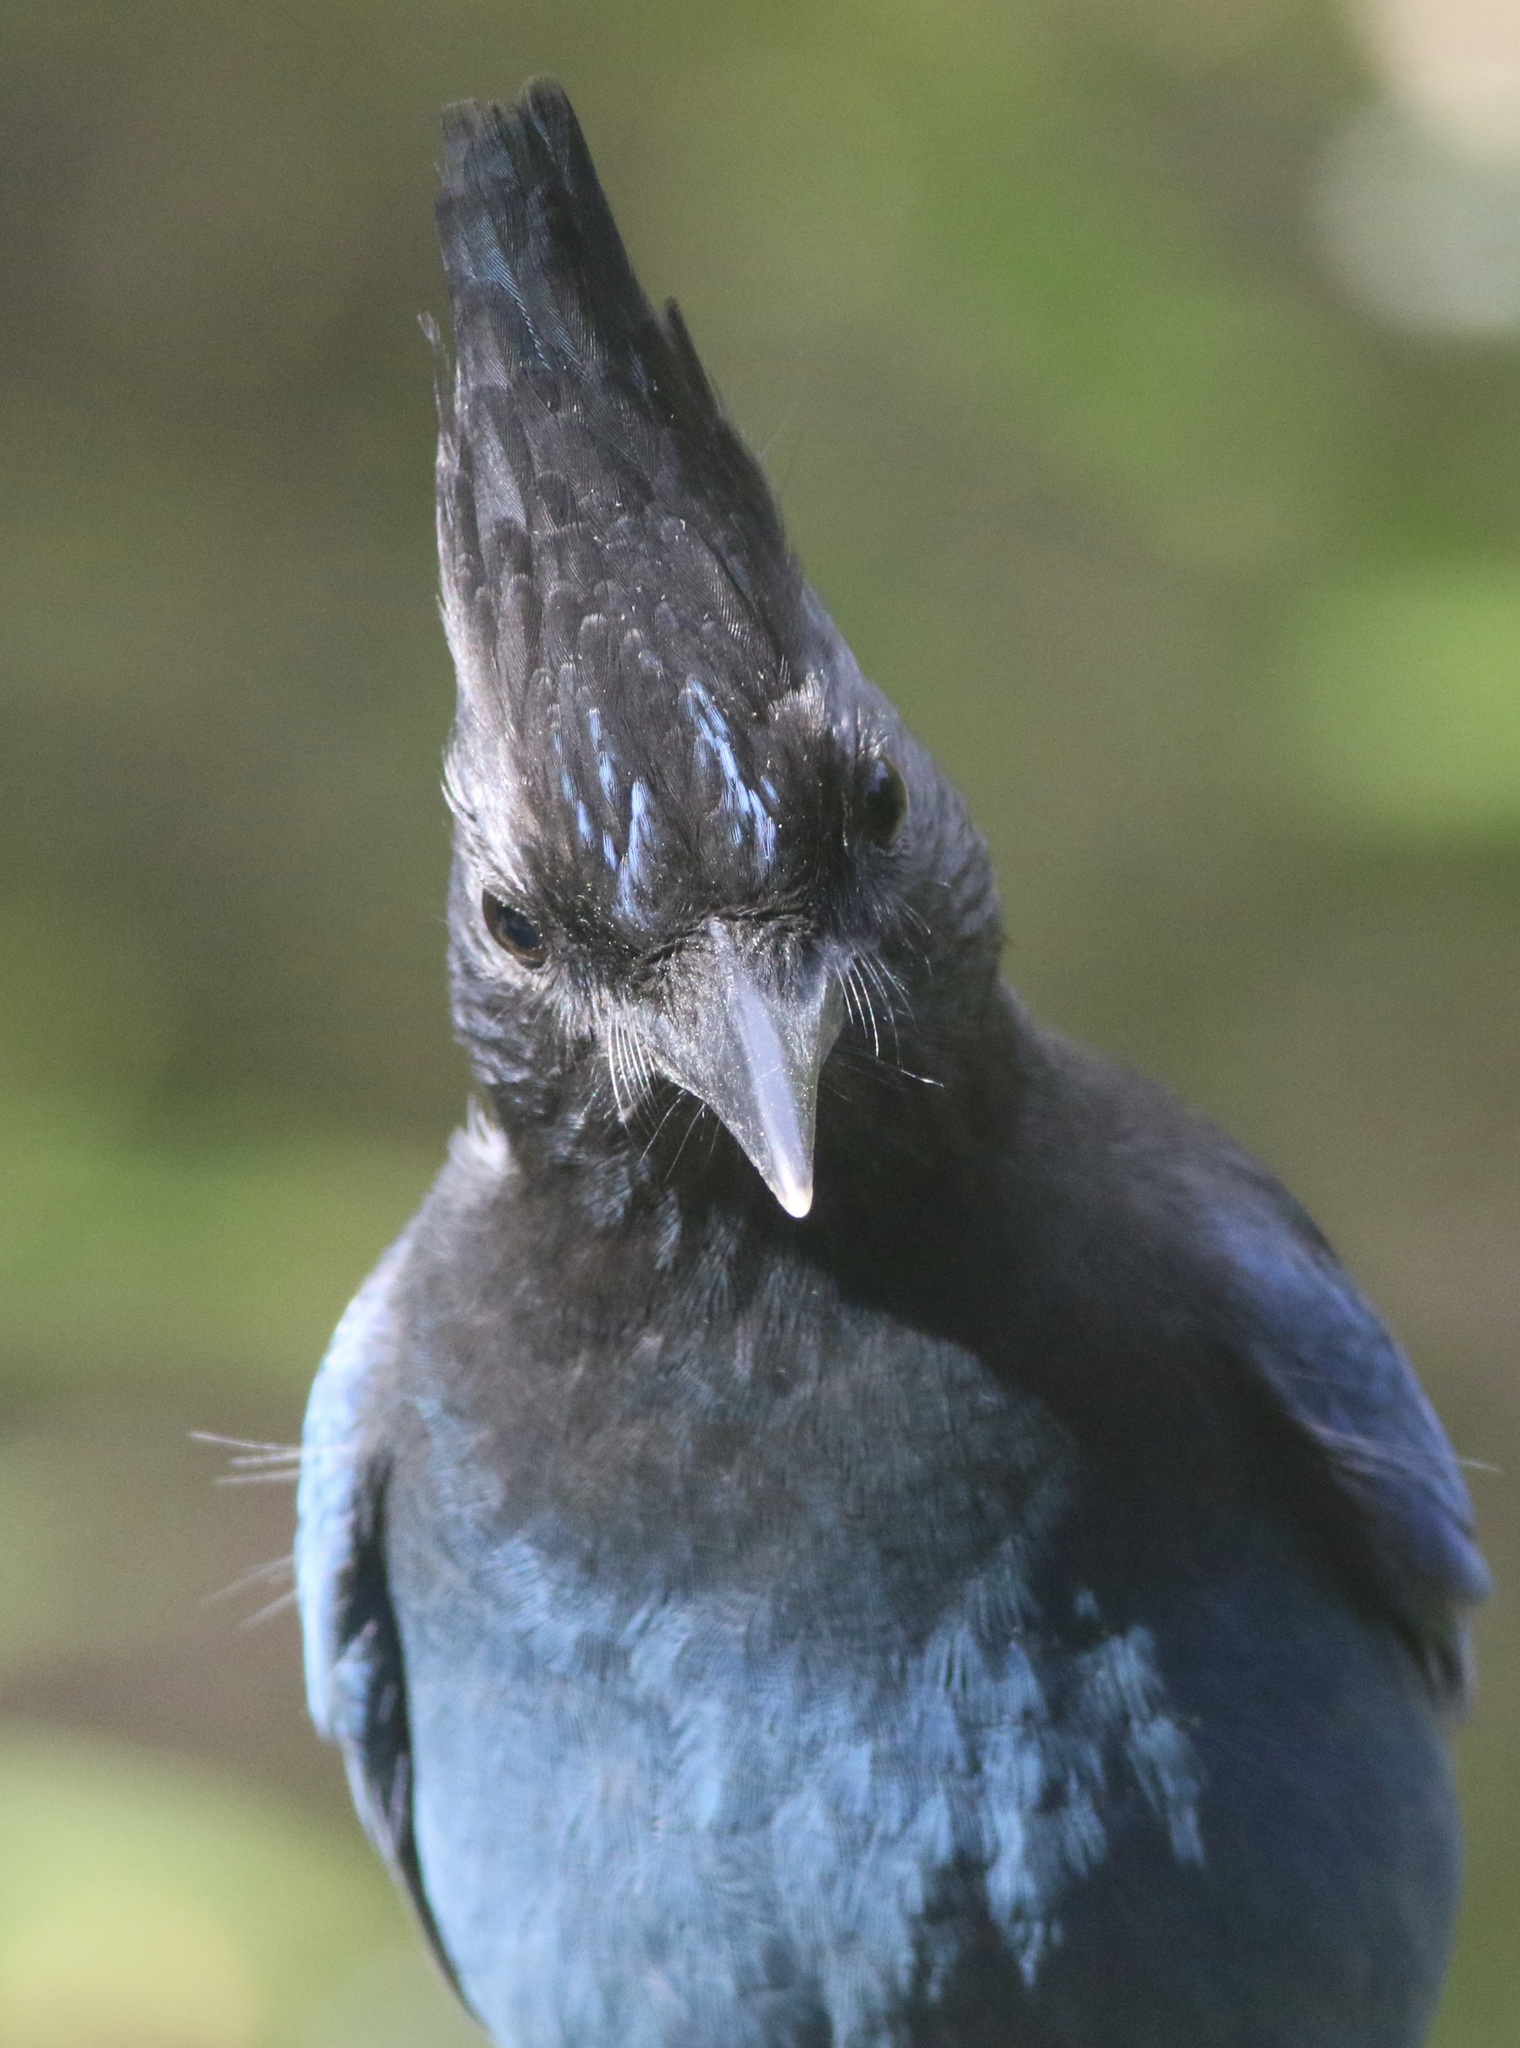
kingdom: Animalia
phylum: Chordata
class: Aves
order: Passeriformes
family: Corvidae
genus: Cyanocitta
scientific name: Cyanocitta stelleri
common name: Steller's jay
